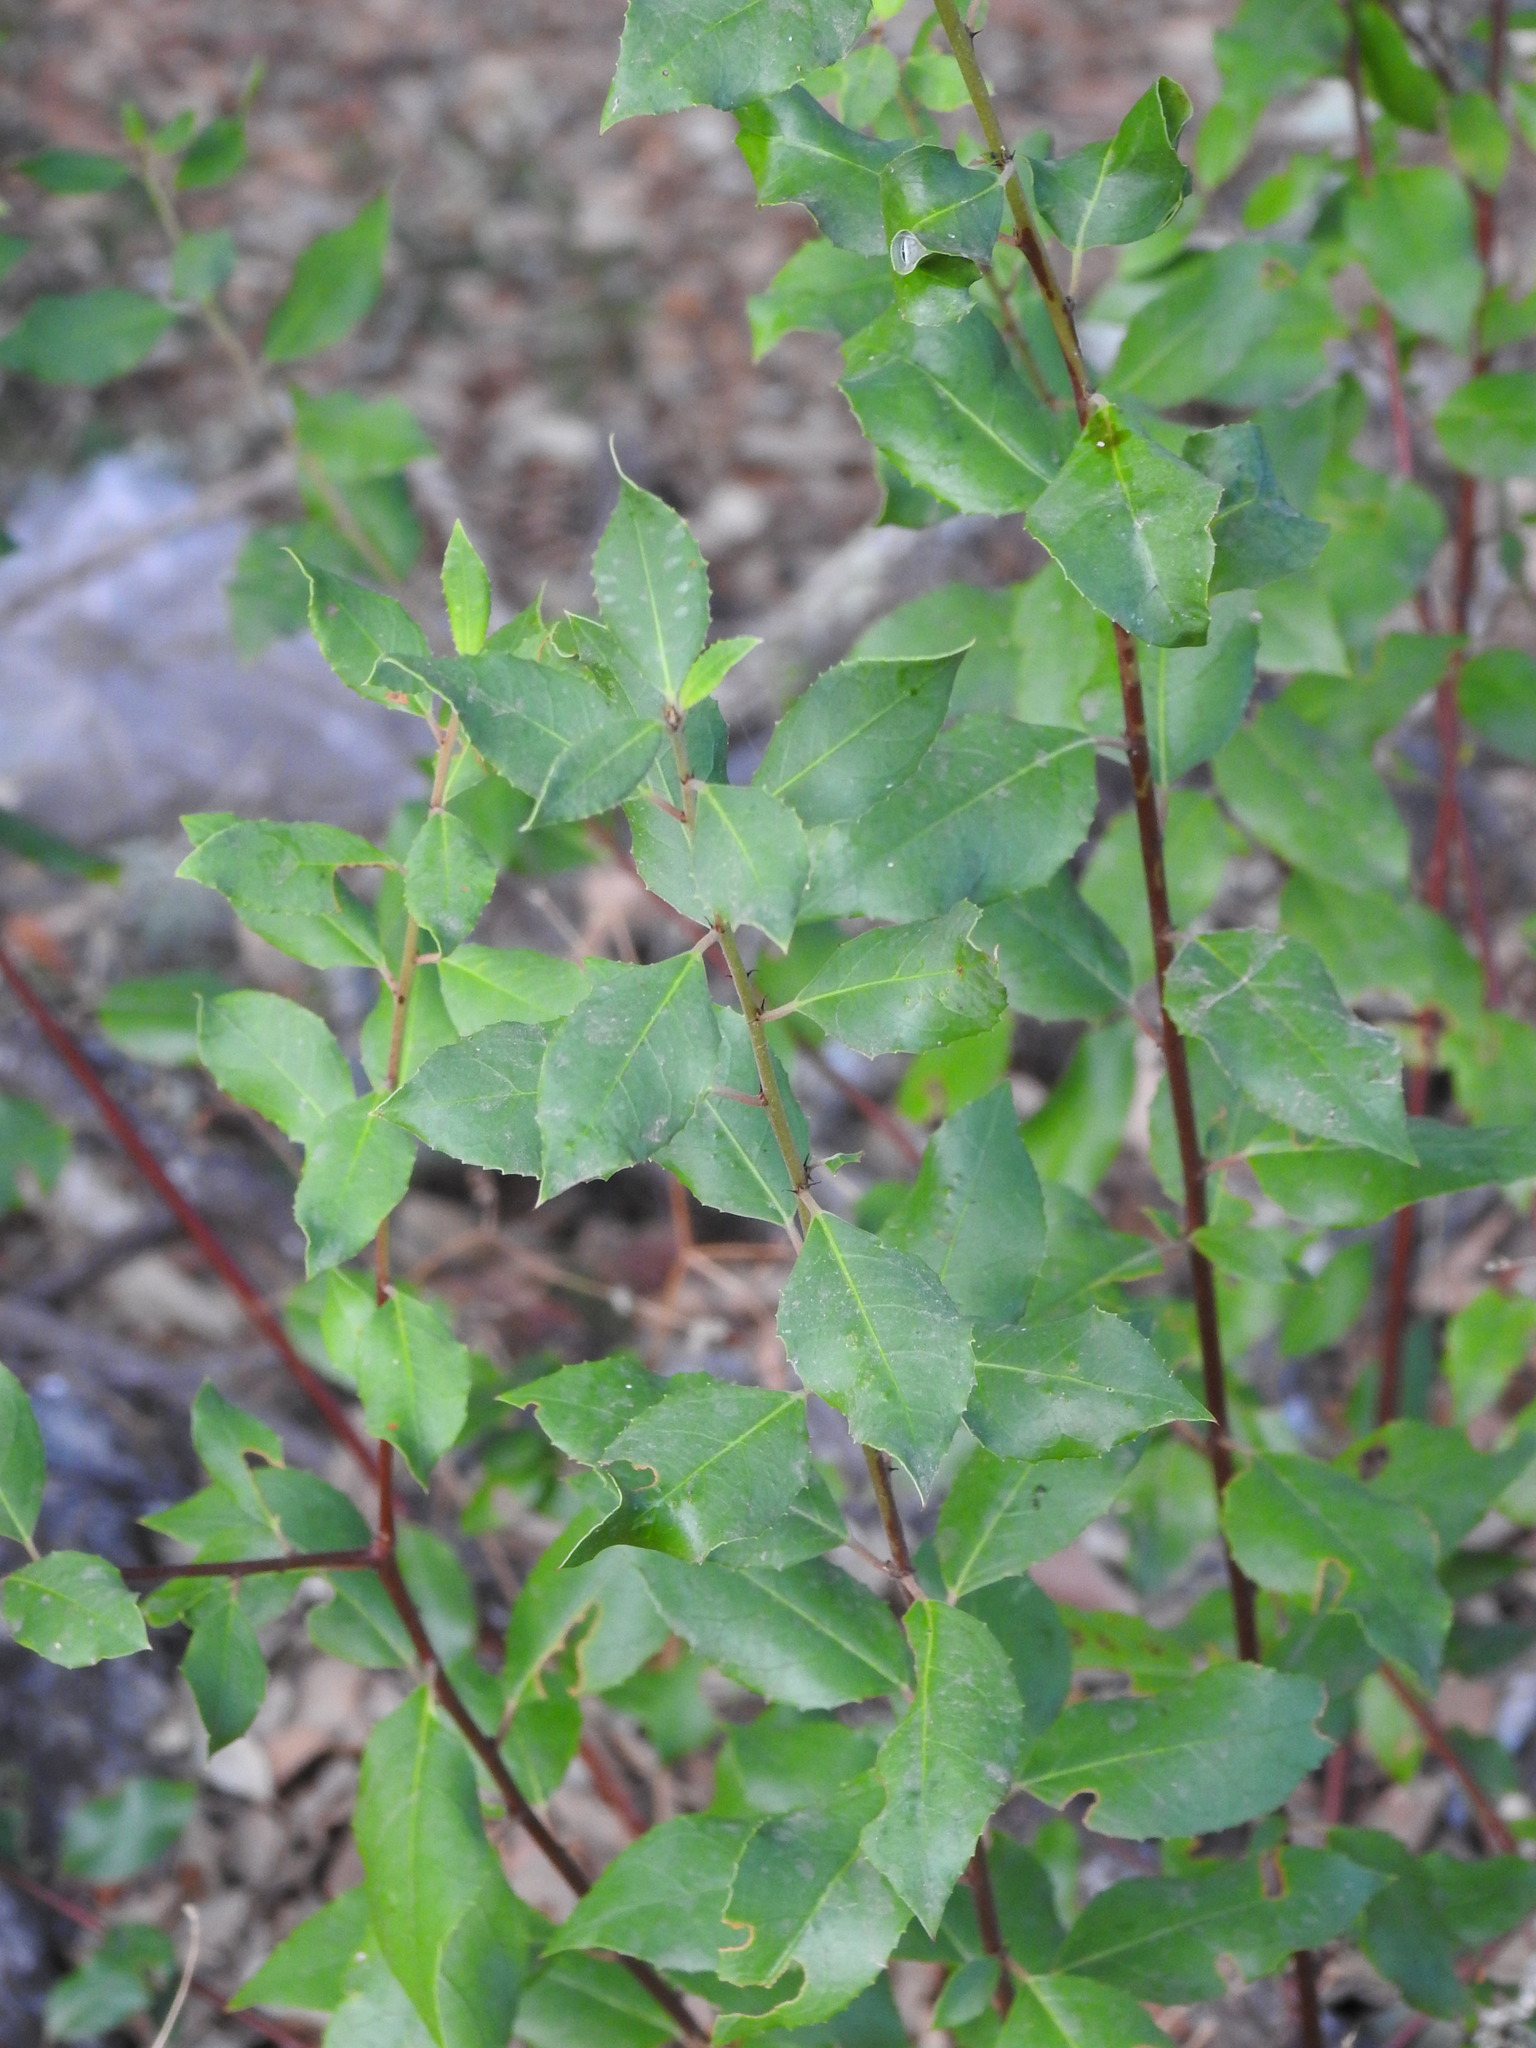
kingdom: Plantae
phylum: Tracheophyta
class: Magnoliopsida
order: Rosales
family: Rhamnaceae
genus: Rhamnus
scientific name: Rhamnus alaternus
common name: Mediterranean buckthorn
